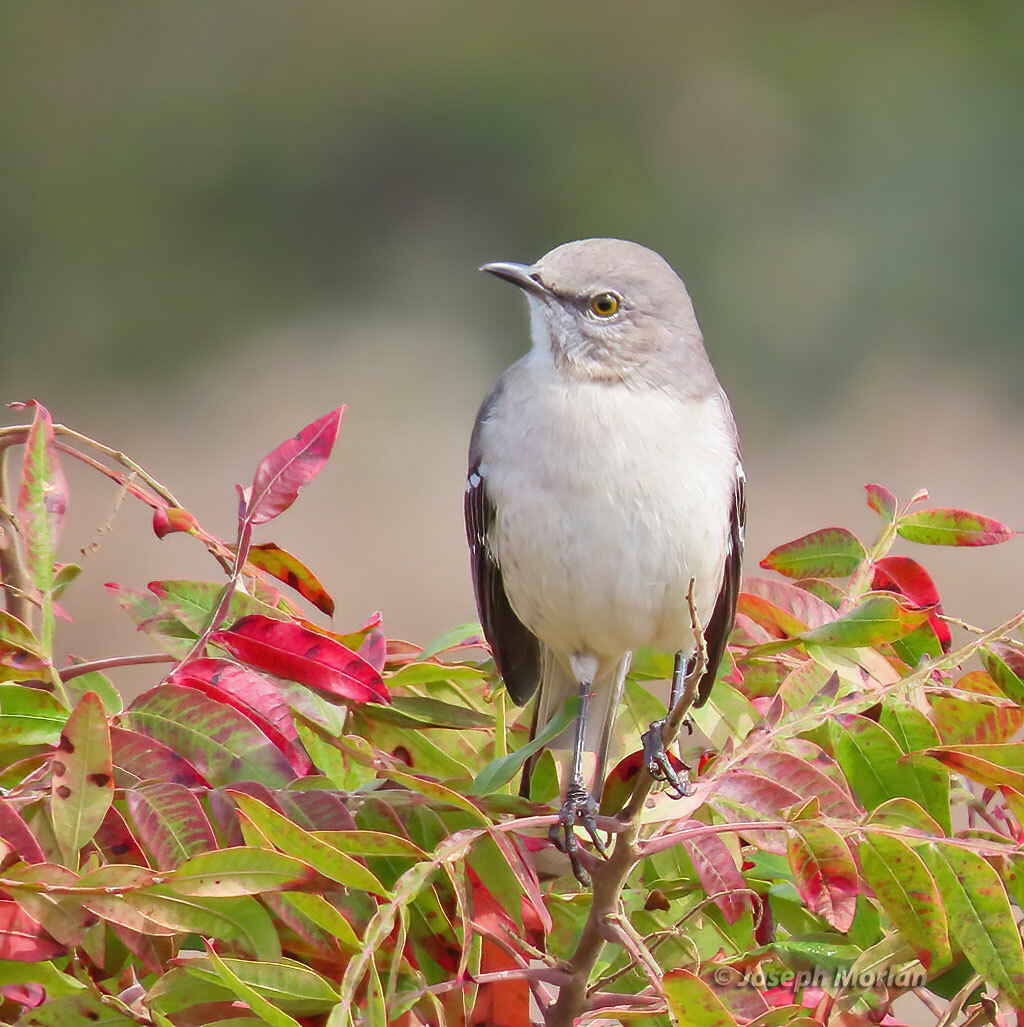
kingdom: Animalia
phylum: Chordata
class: Aves
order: Passeriformes
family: Mimidae
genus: Mimus
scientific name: Mimus polyglottos
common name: Northern mockingbird
